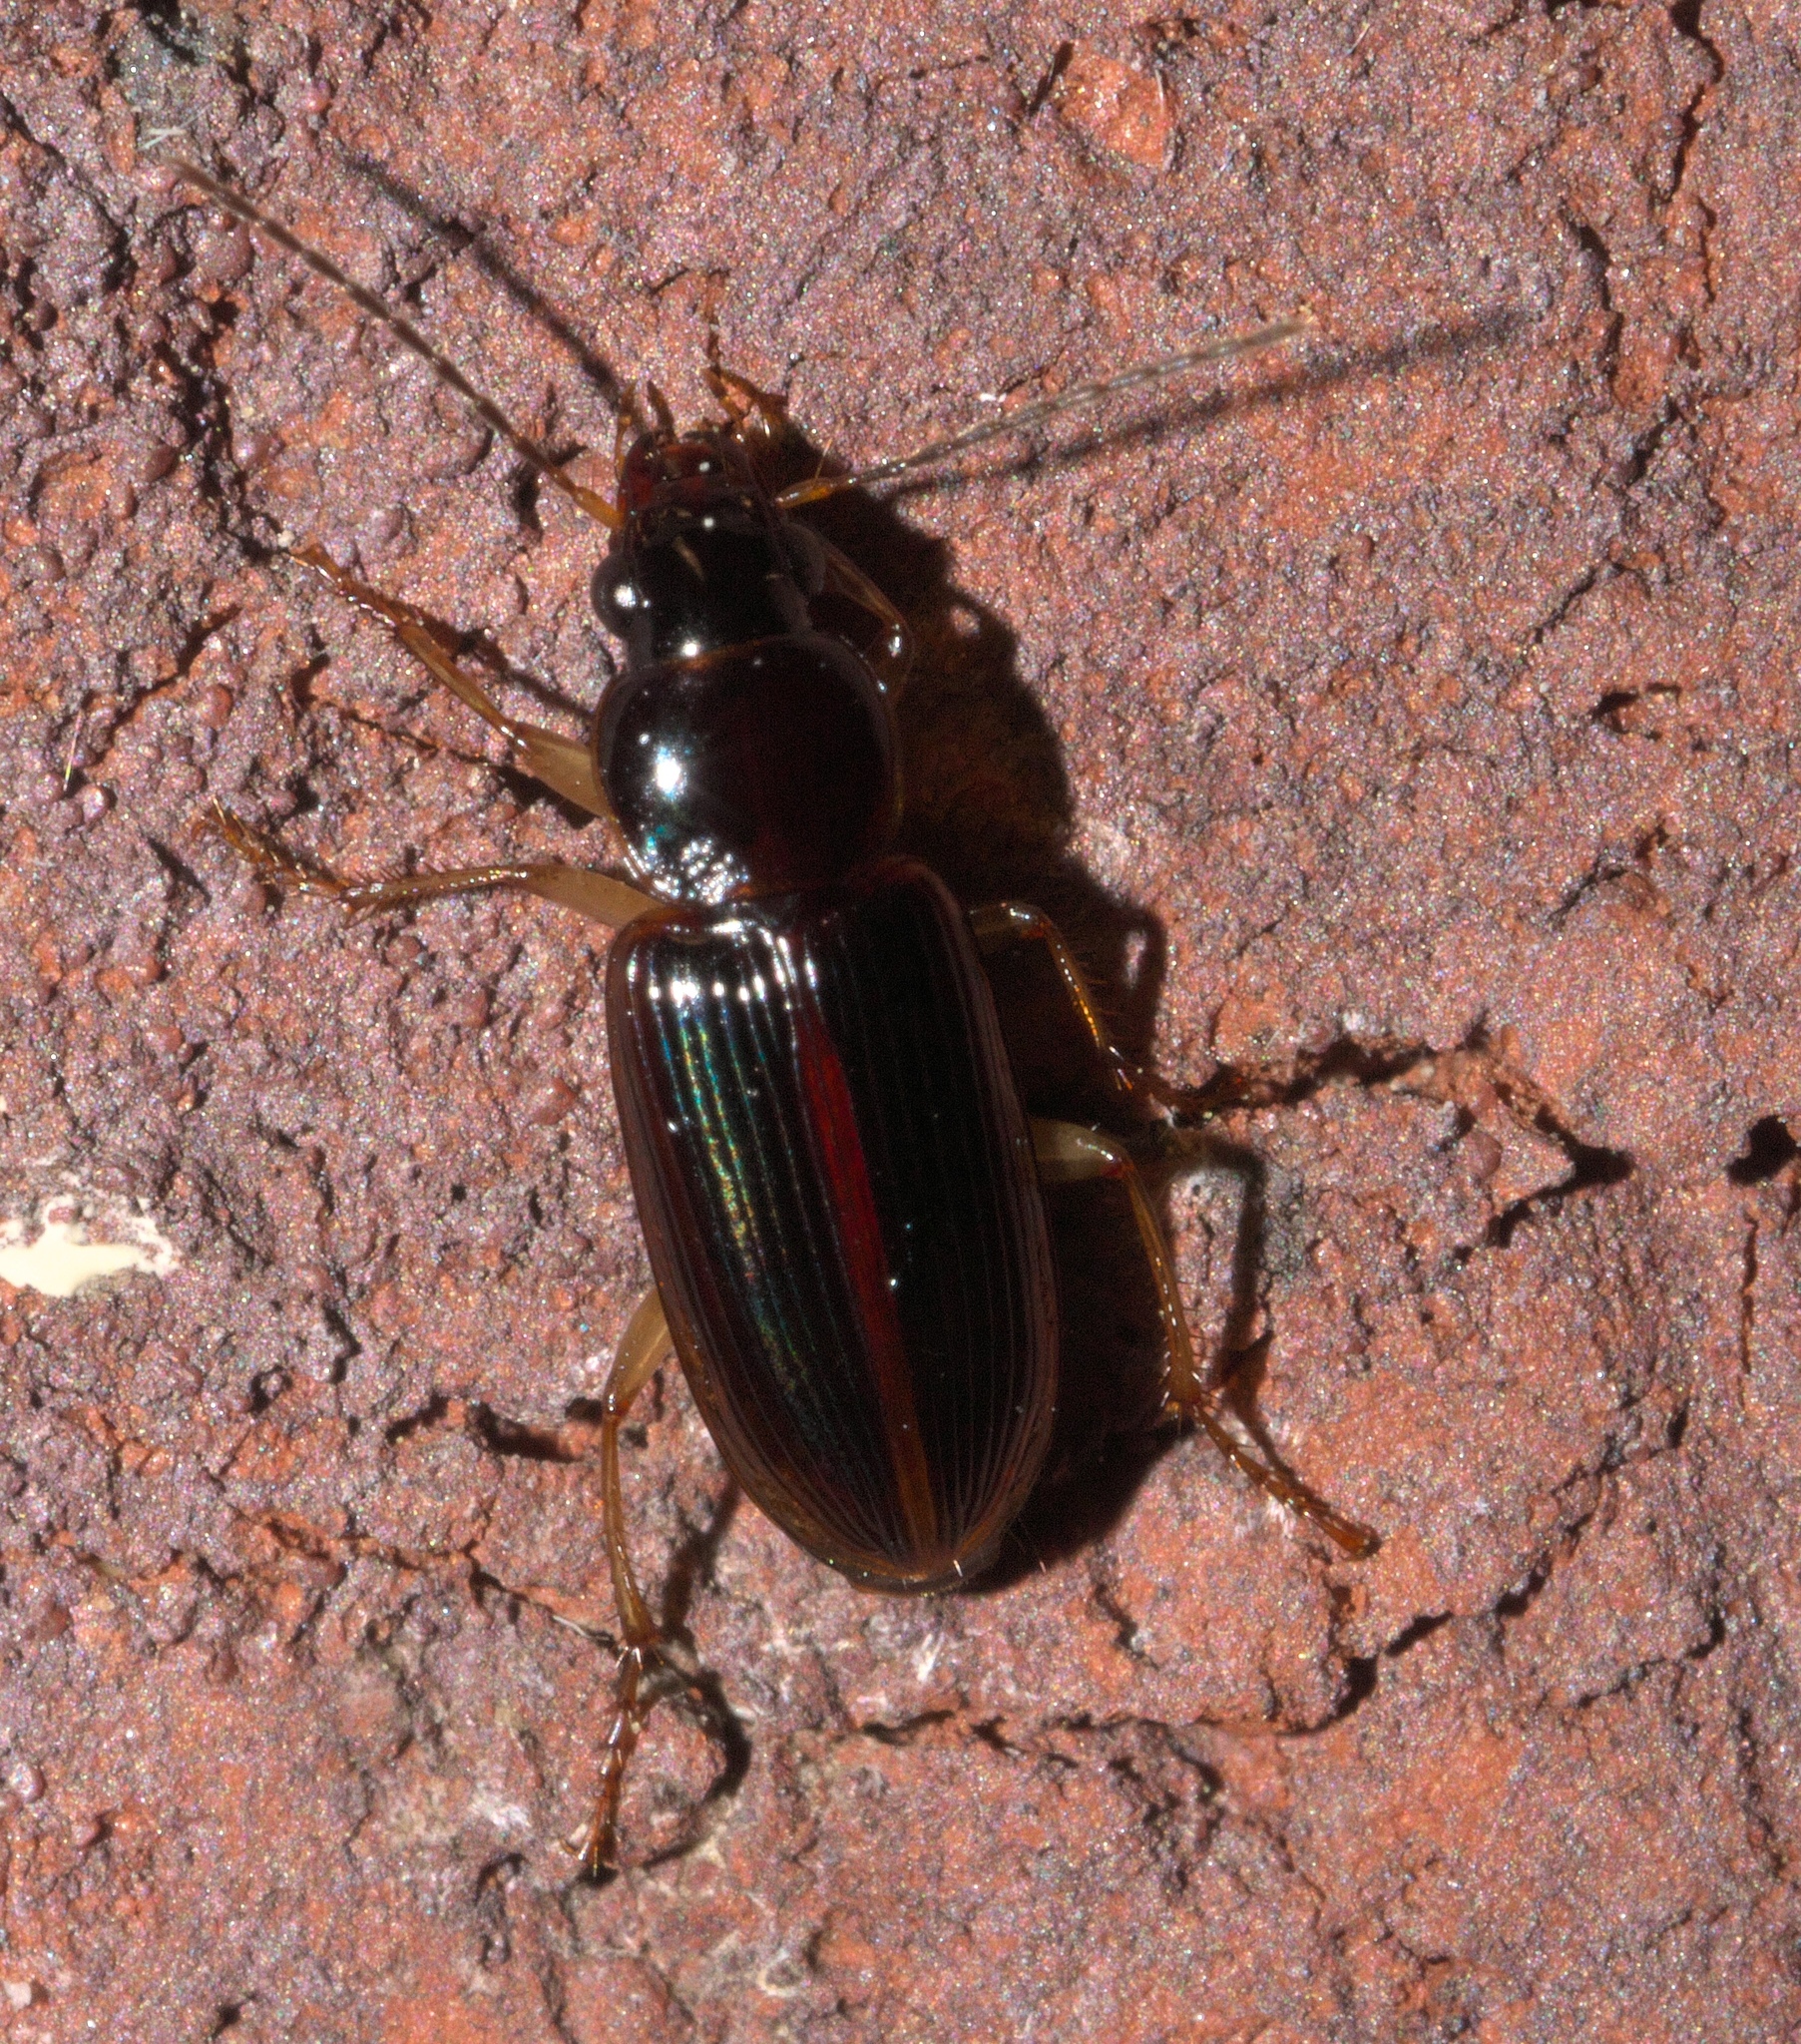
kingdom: Animalia
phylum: Arthropoda
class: Insecta
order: Coleoptera
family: Carabidae
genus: Stenolophus
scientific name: Stenolophus ochropezus
